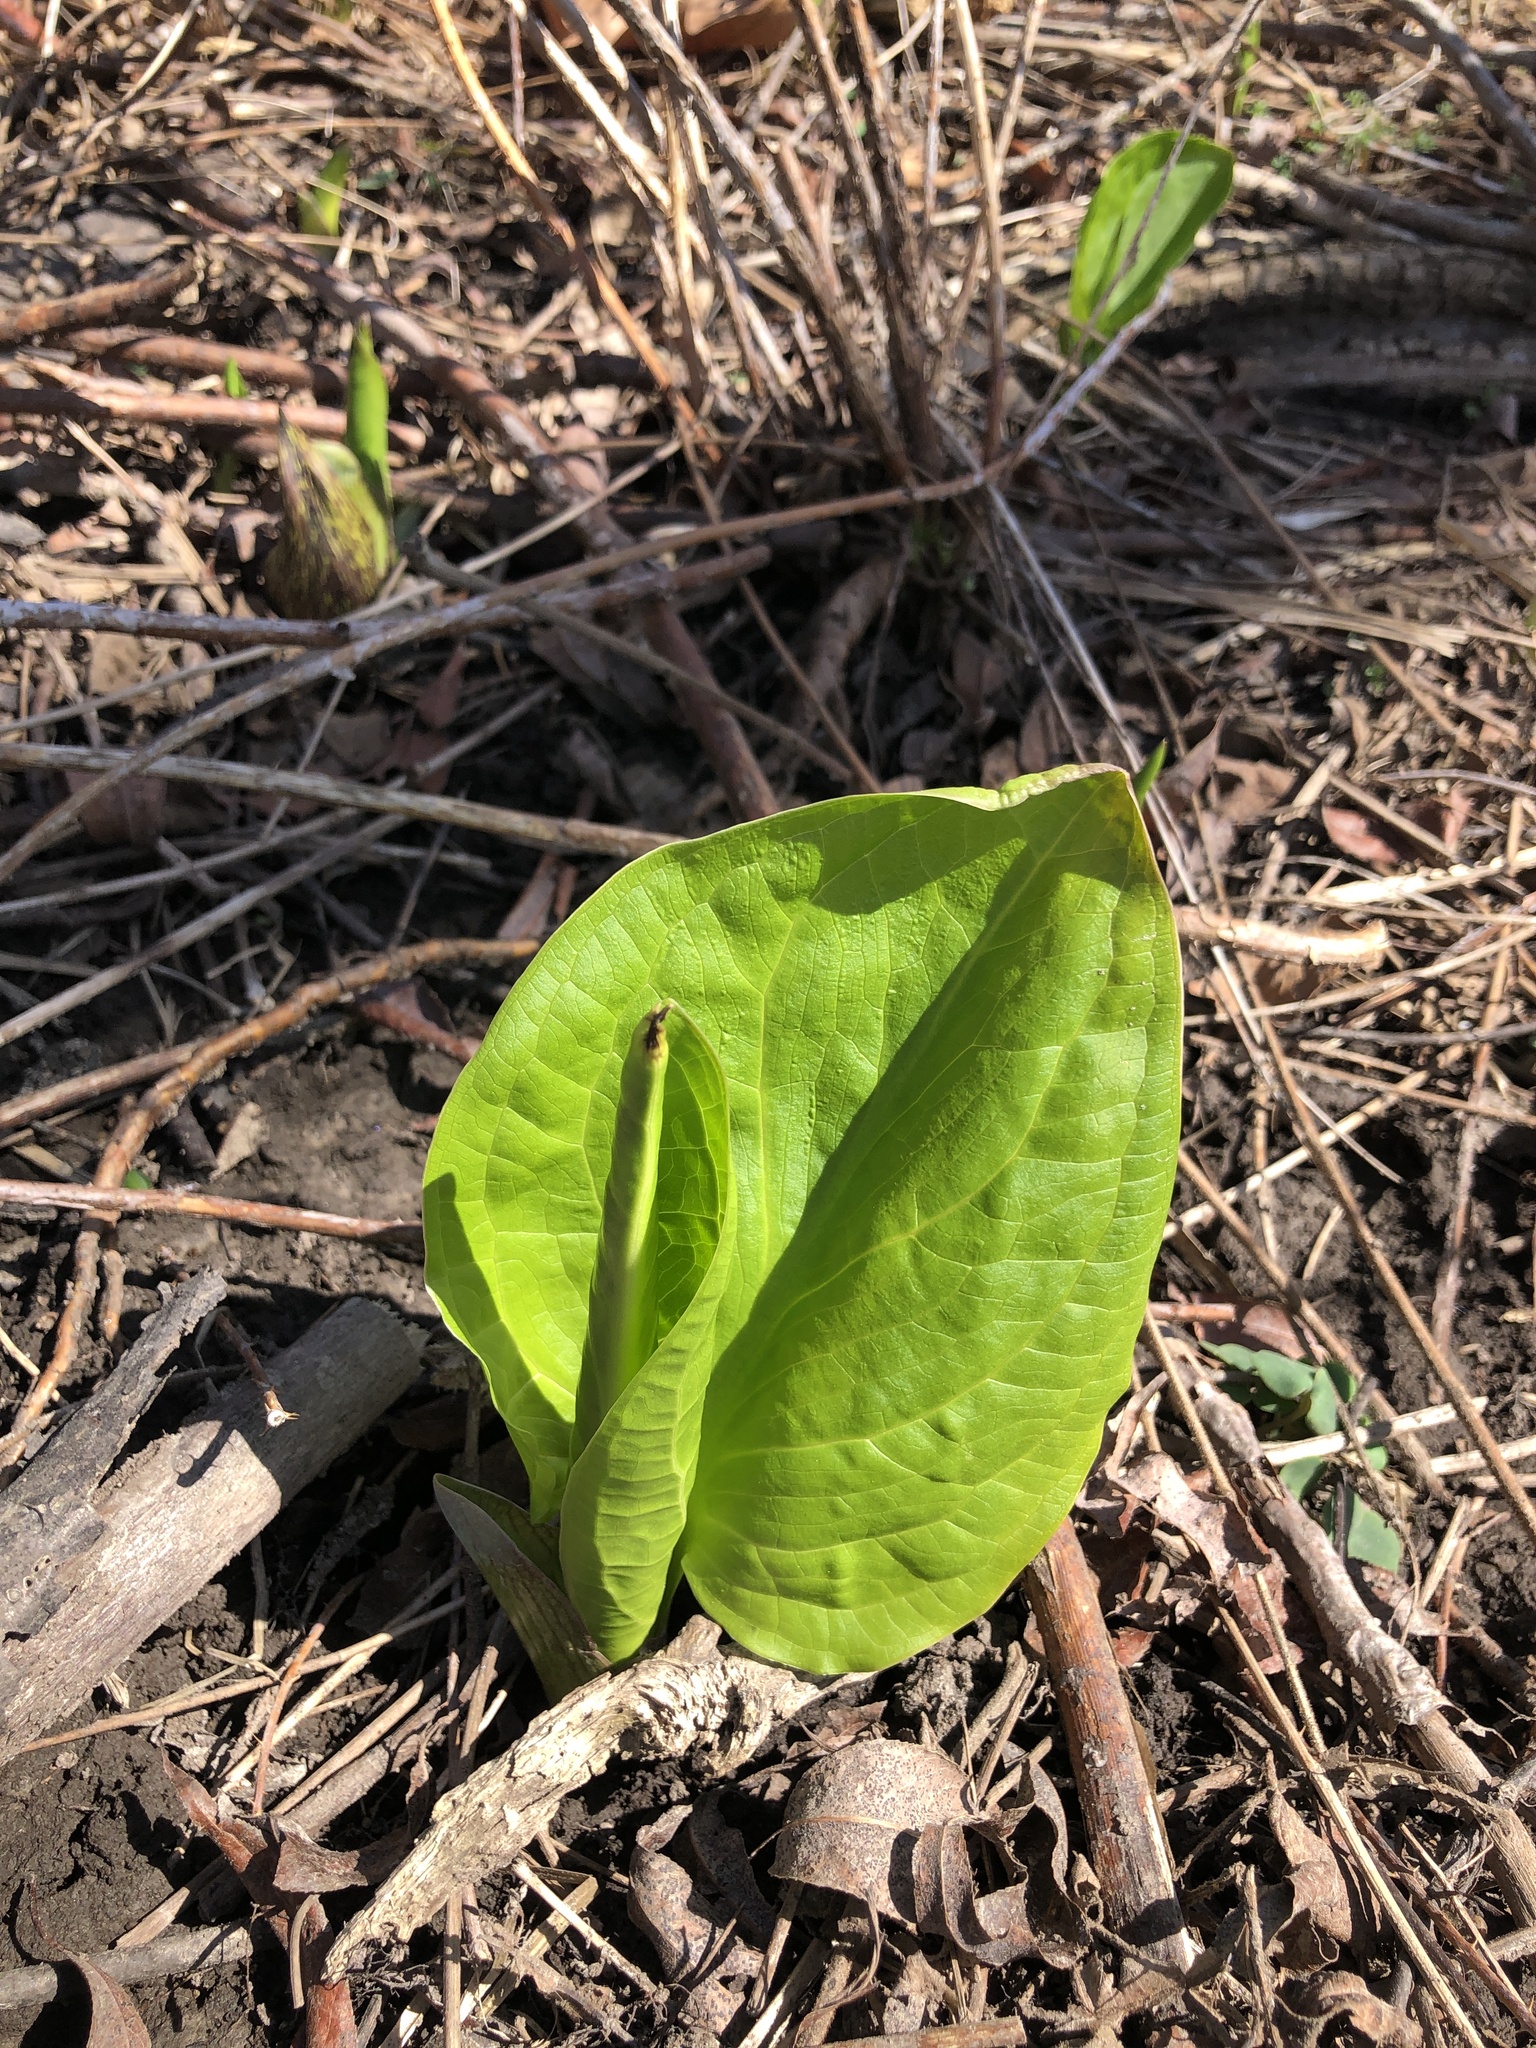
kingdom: Plantae
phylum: Tracheophyta
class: Liliopsida
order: Alismatales
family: Araceae
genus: Symplocarpus
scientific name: Symplocarpus foetidus
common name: Eastern skunk cabbage
